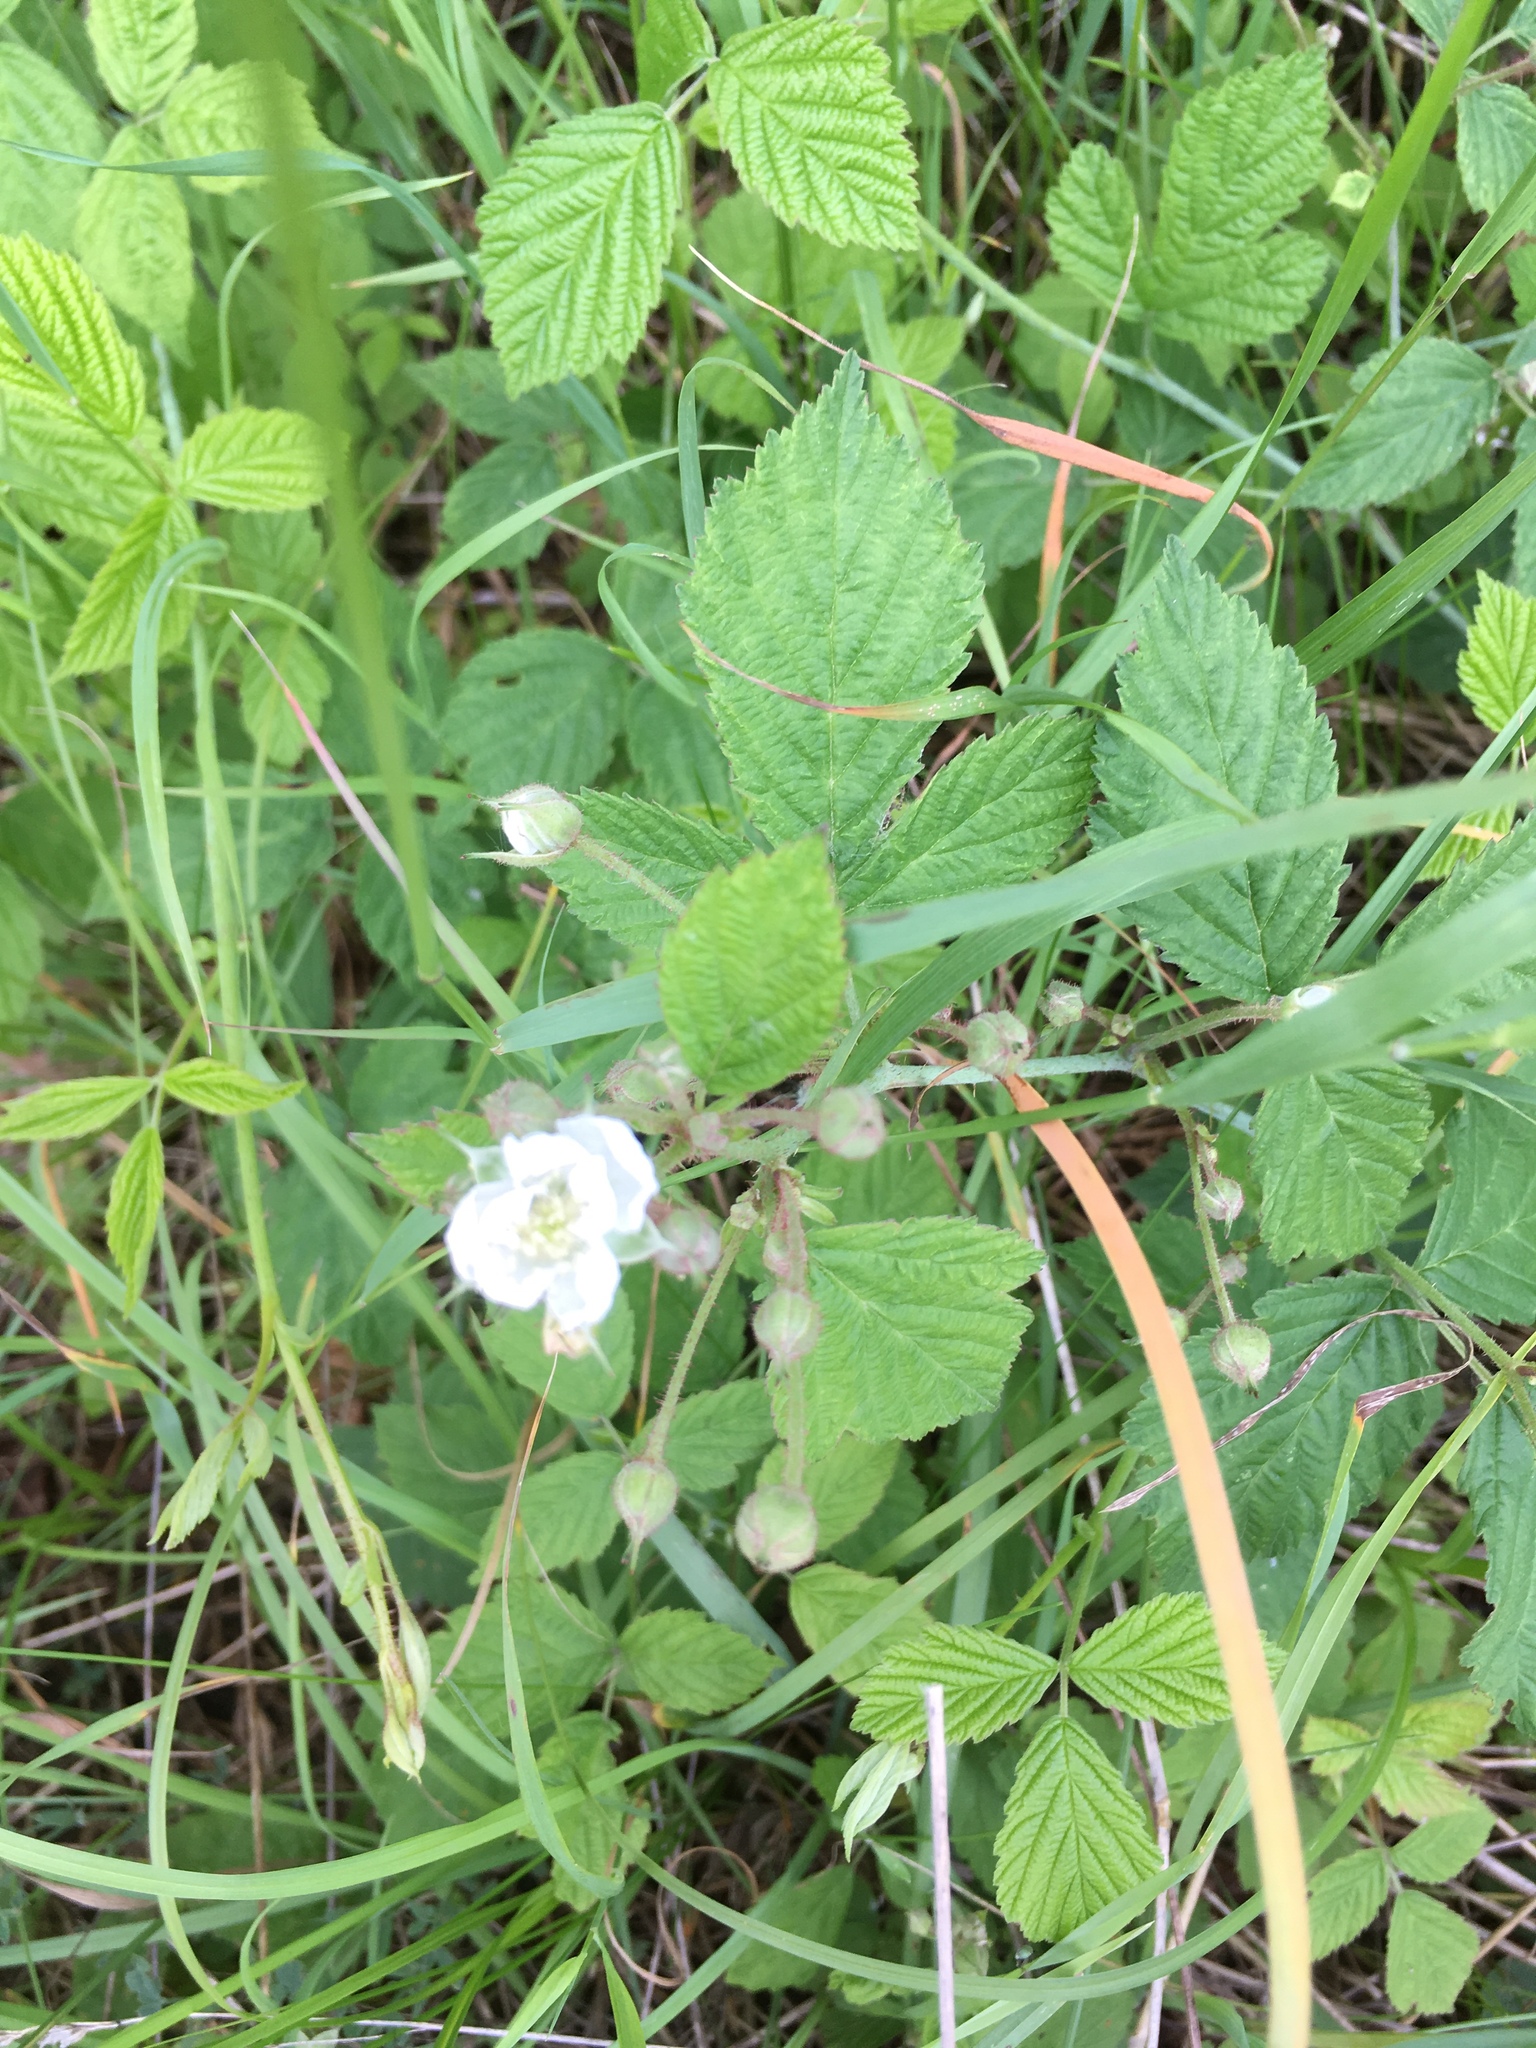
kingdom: Plantae
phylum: Tracheophyta
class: Magnoliopsida
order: Rosales
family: Rosaceae
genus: Rubus
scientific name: Rubus caesius
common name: Dewberry
